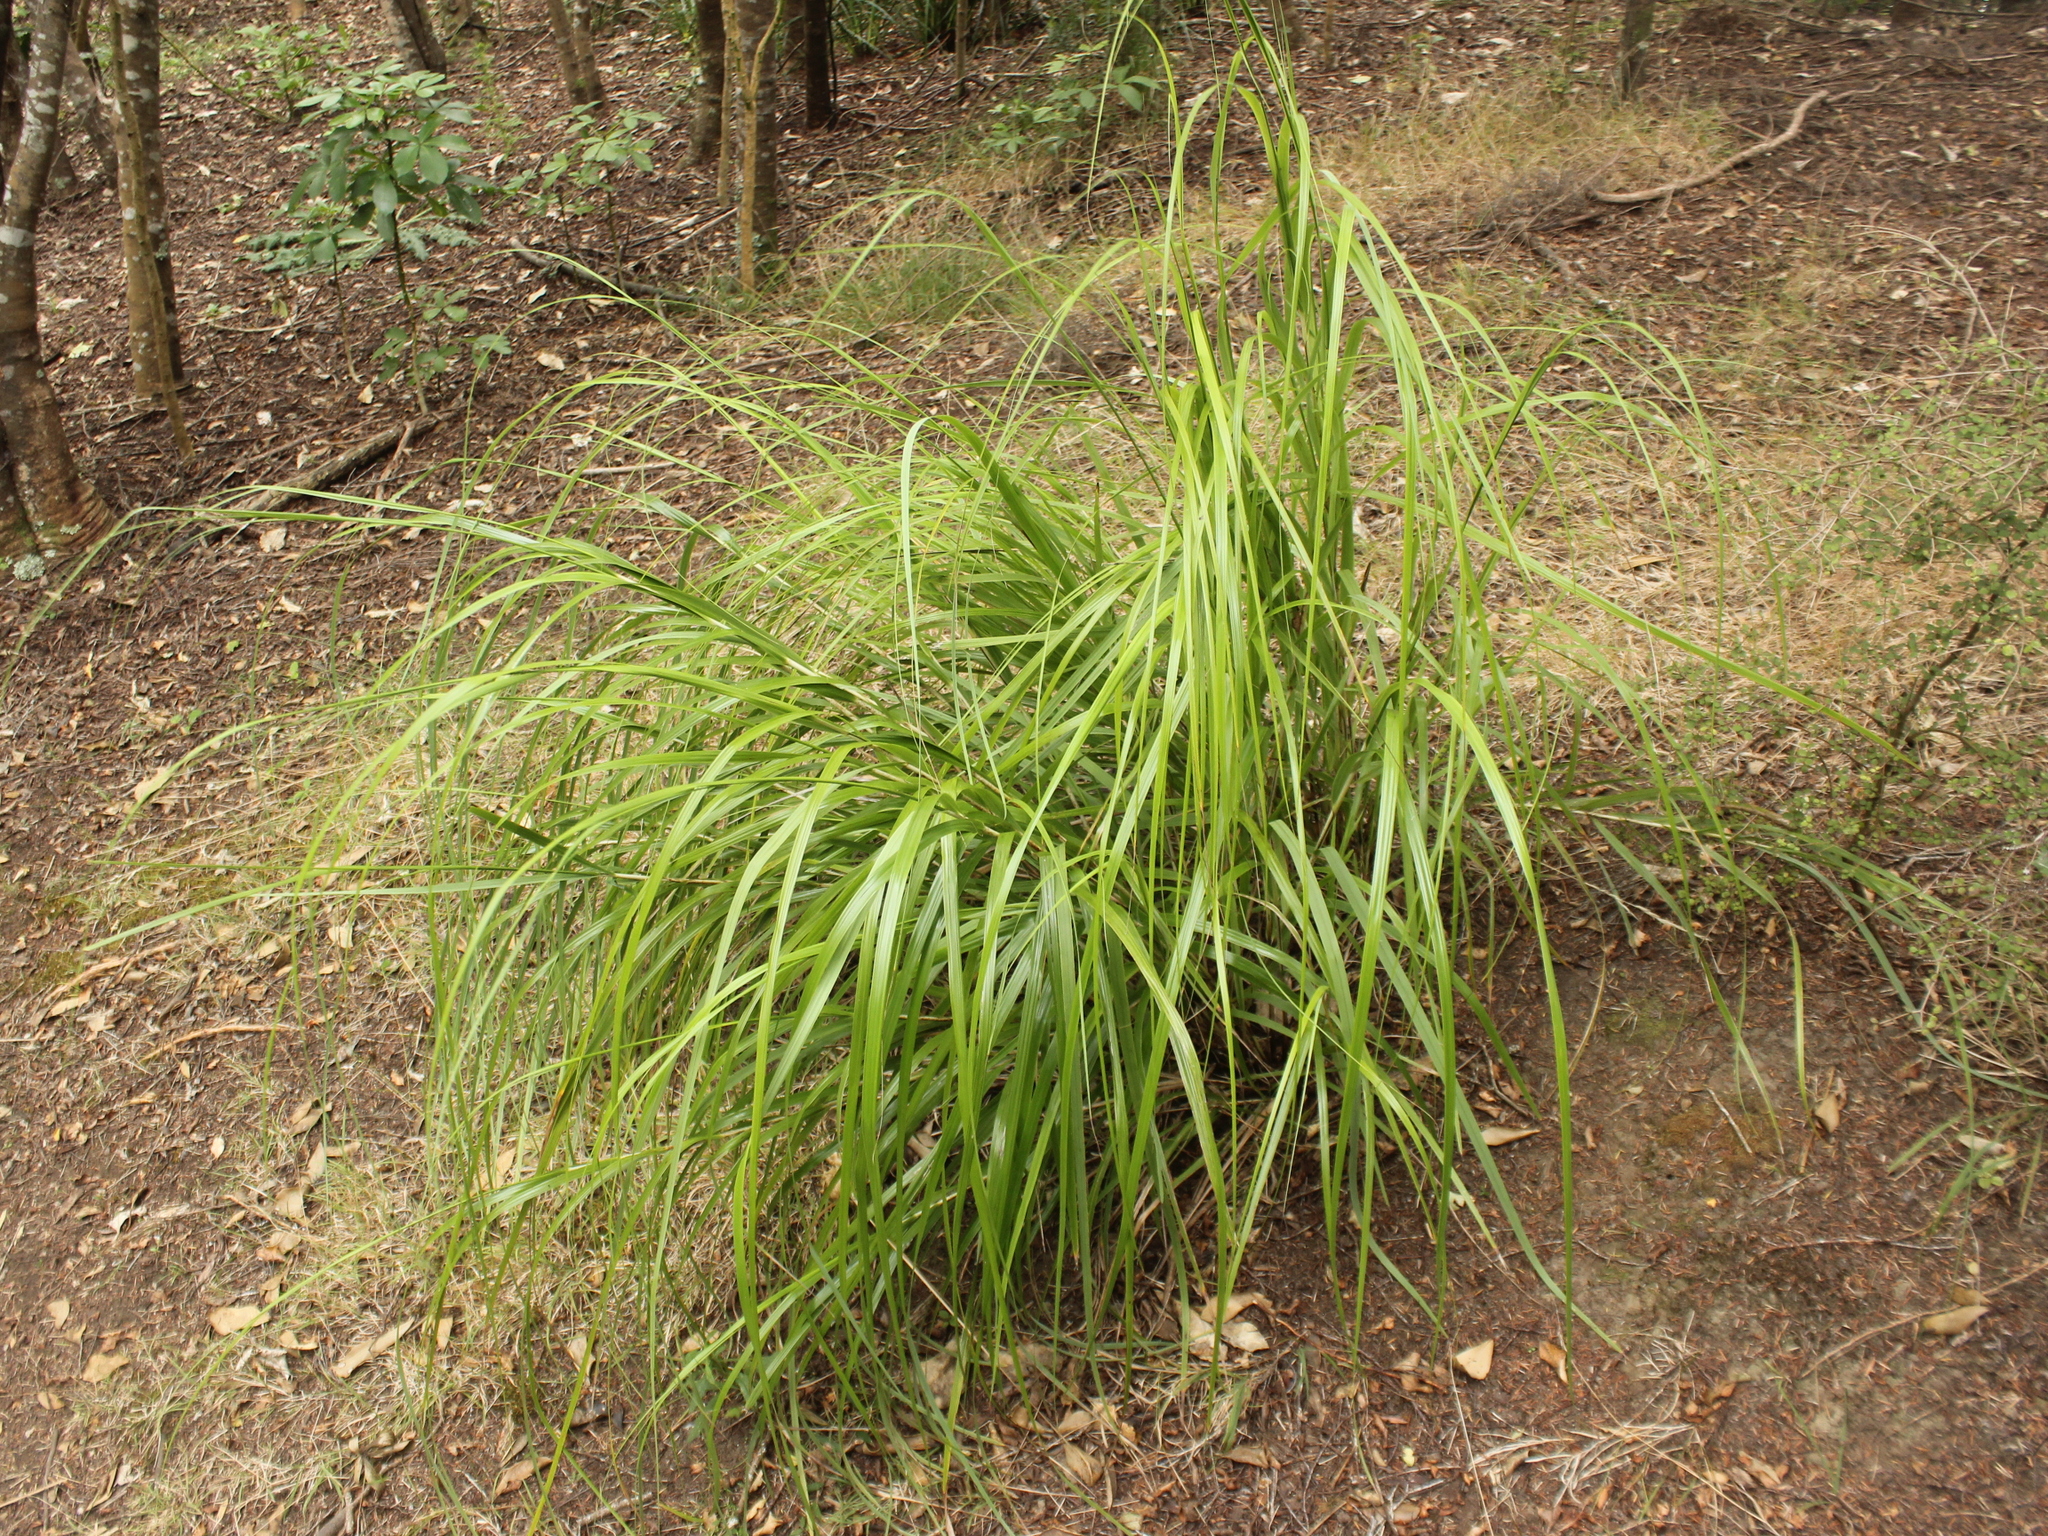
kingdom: Plantae
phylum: Tracheophyta
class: Liliopsida
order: Poales
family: Cyperaceae
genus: Gahnia
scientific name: Gahnia lacera
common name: Sawsedge
